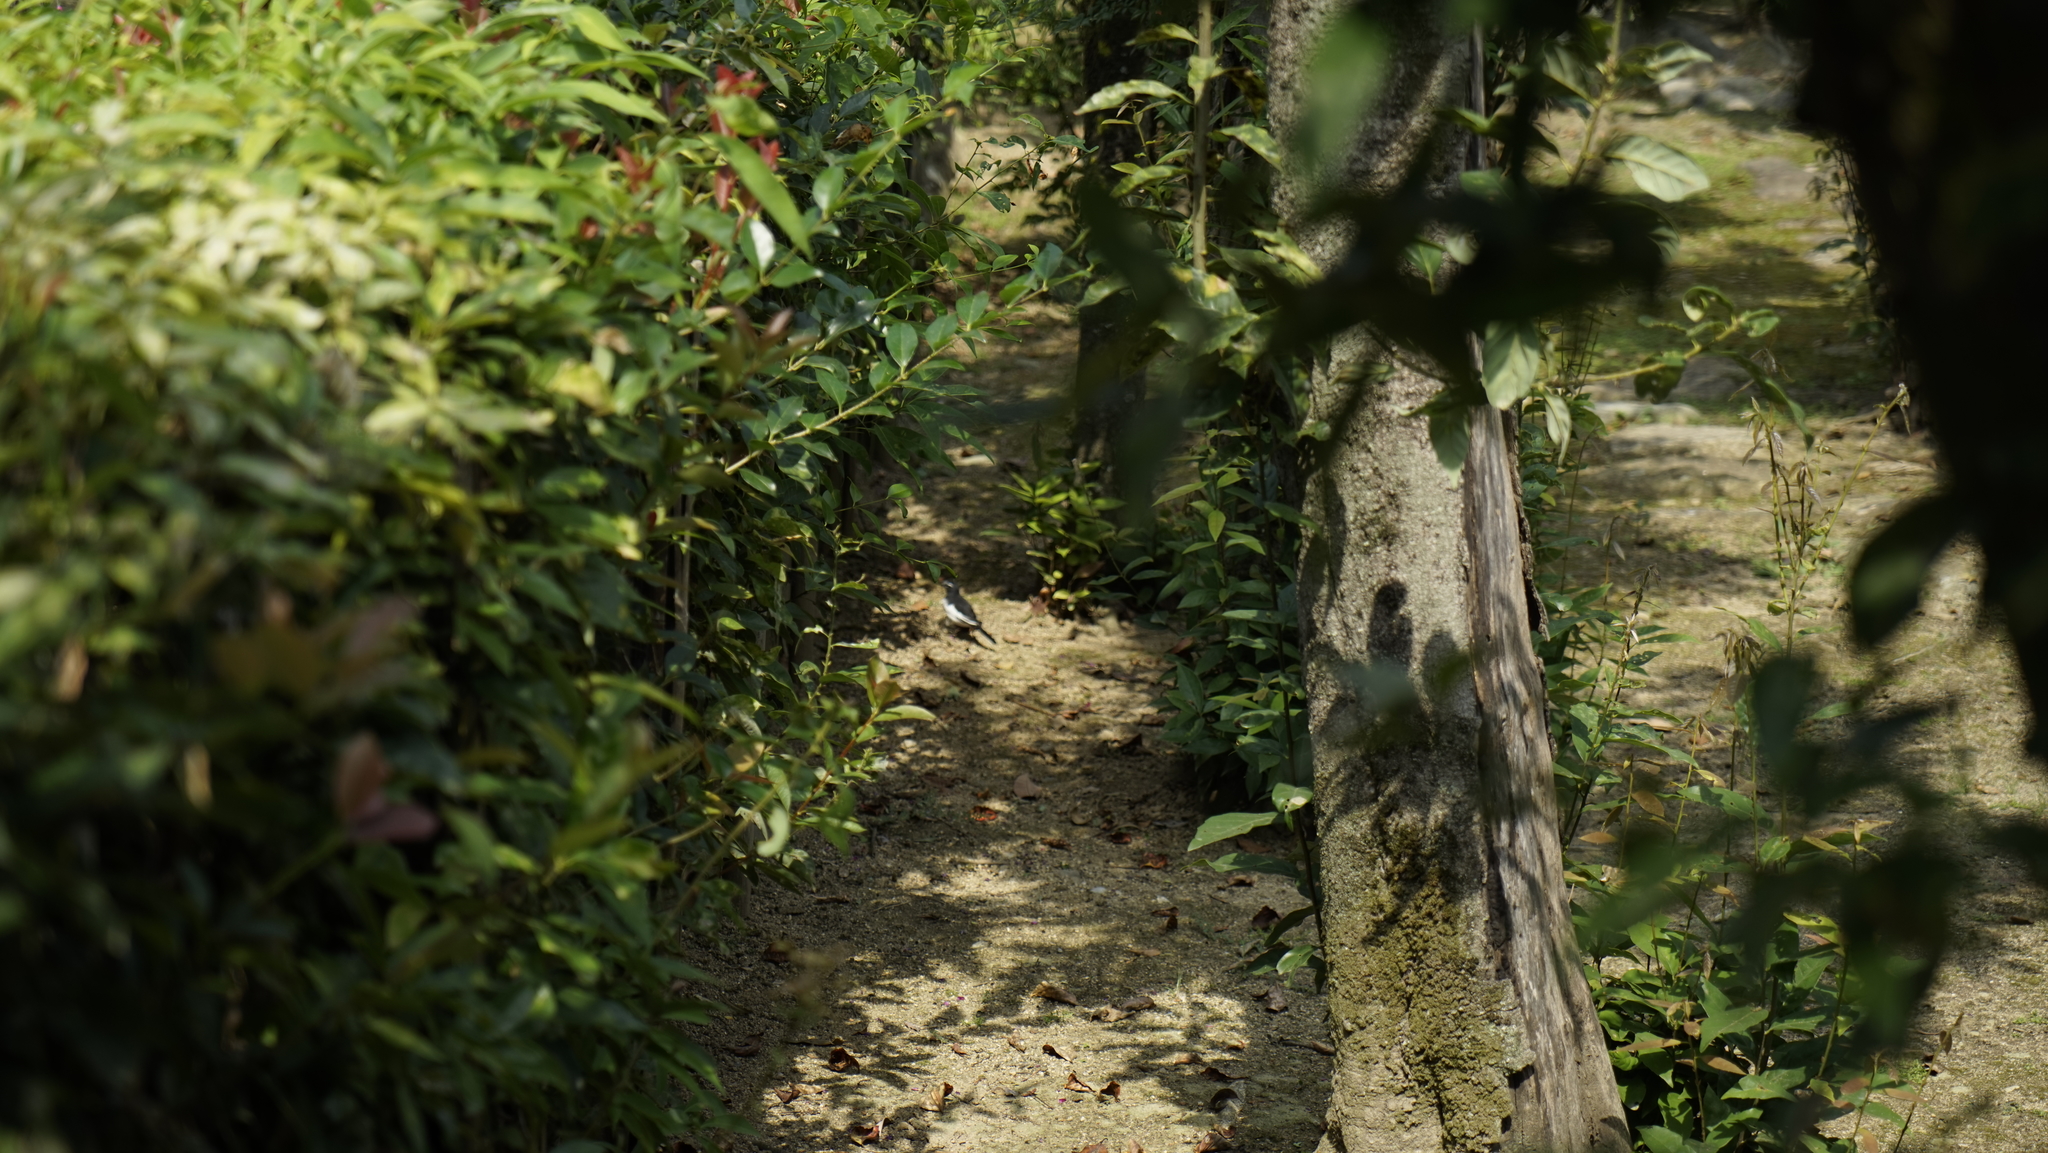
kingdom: Animalia
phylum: Chordata
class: Aves
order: Passeriformes
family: Motacillidae
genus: Motacilla
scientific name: Motacilla grandis
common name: Japanese wagtail
